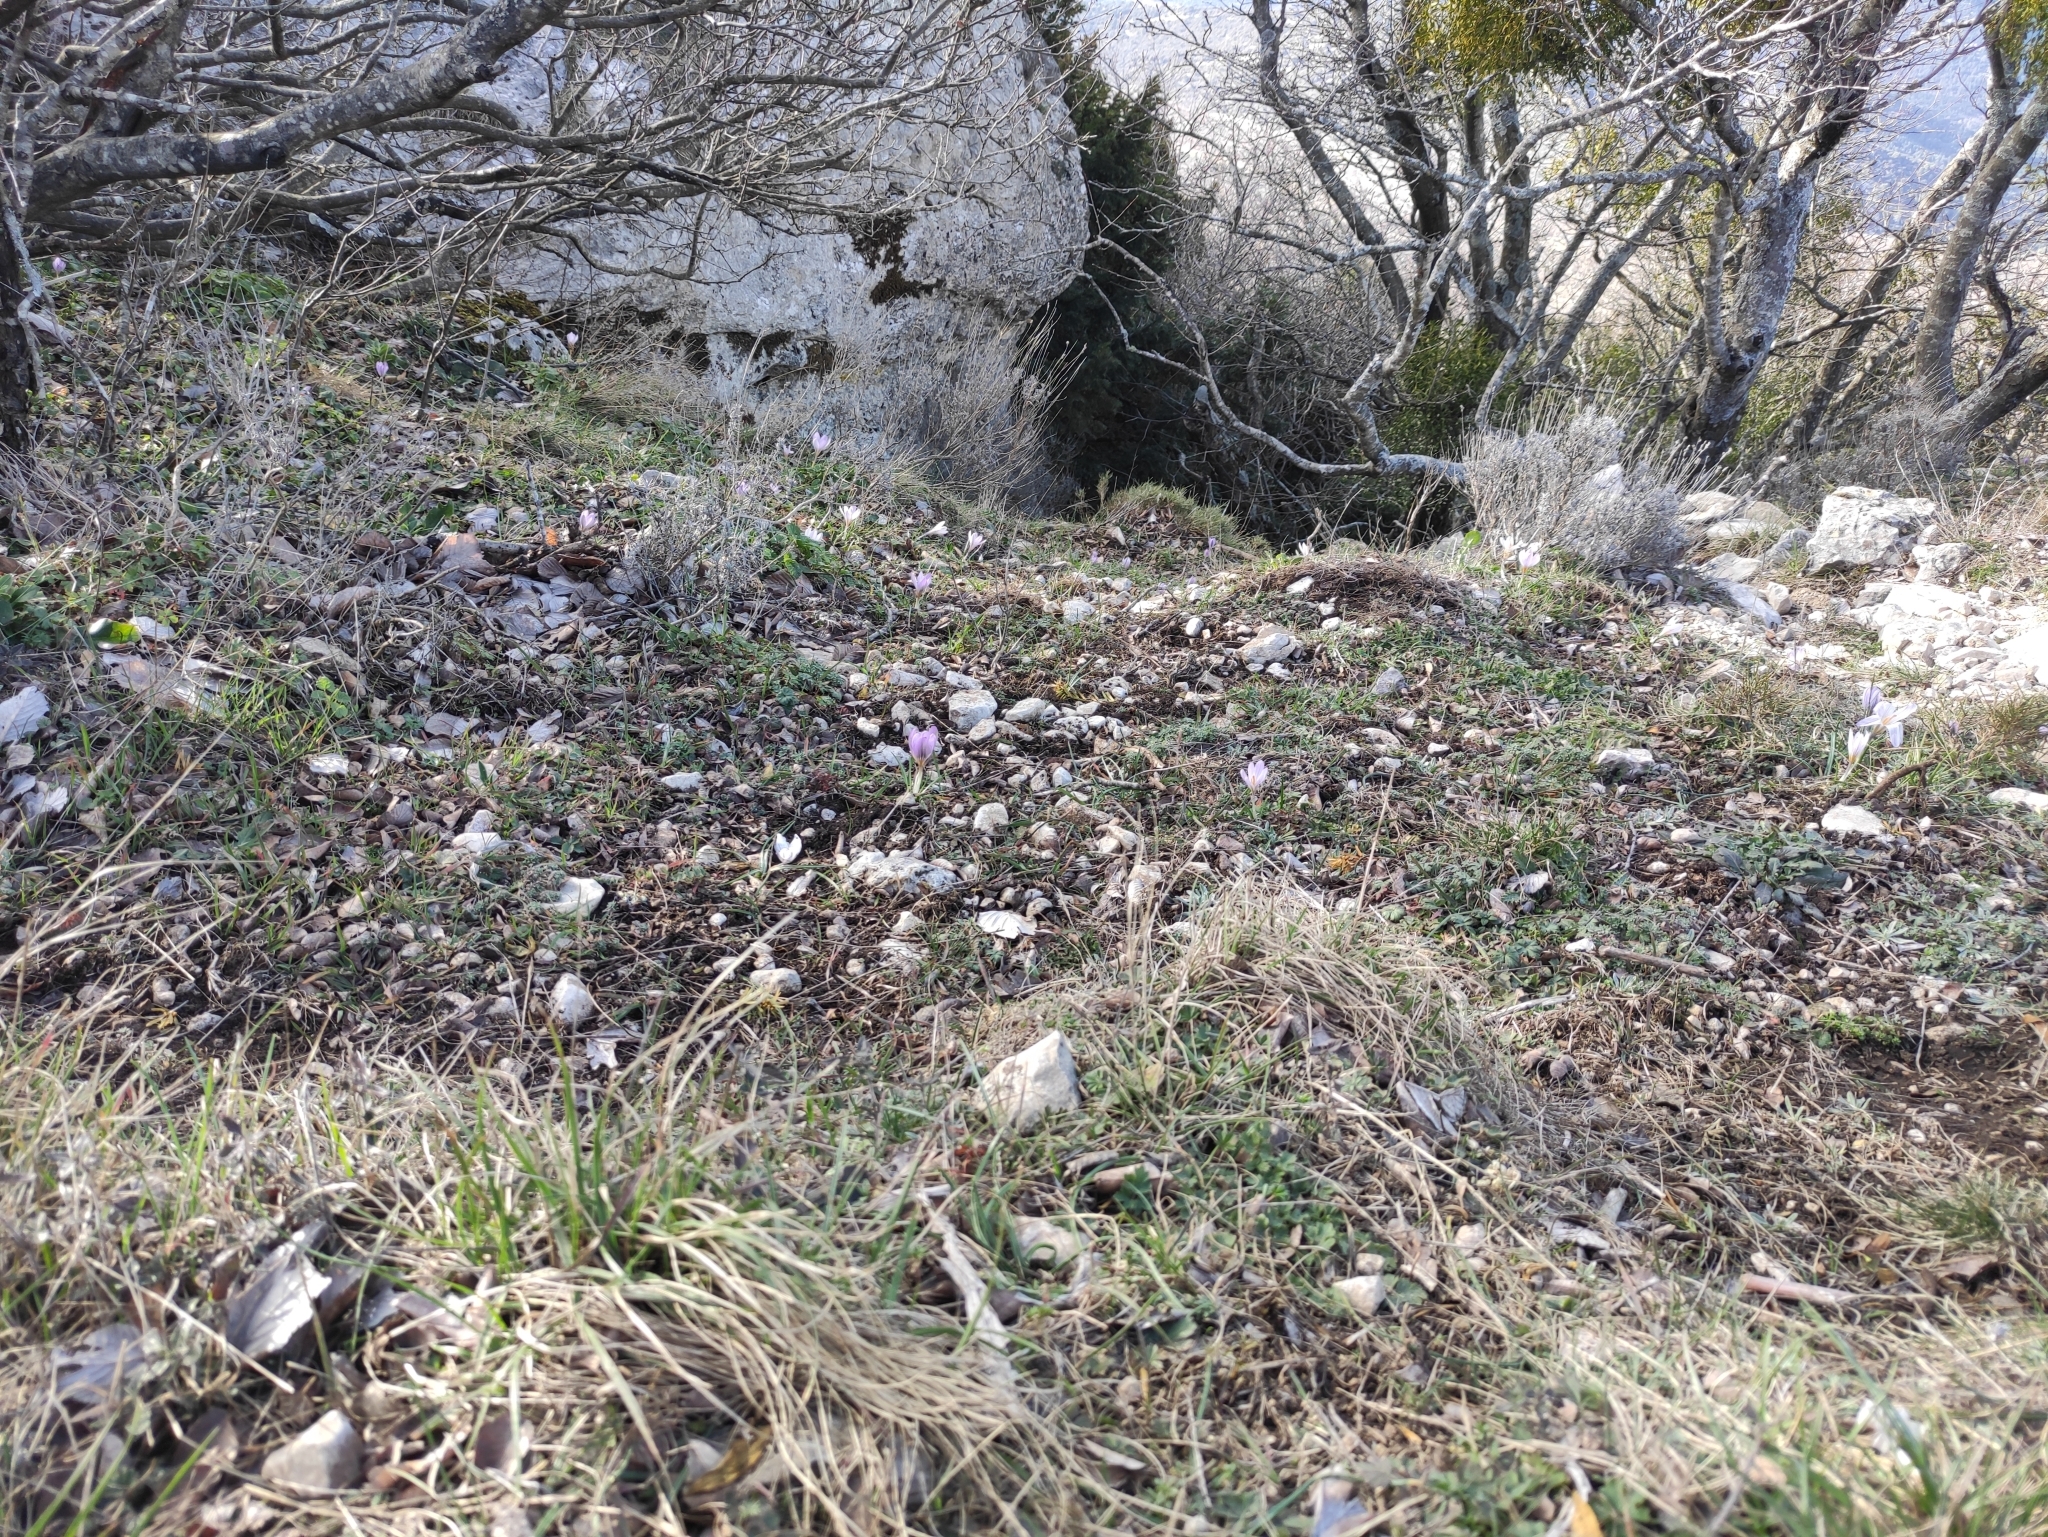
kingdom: Plantae
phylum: Tracheophyta
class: Liliopsida
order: Asparagales
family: Iridaceae
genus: Crocus
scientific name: Crocus versicolor
